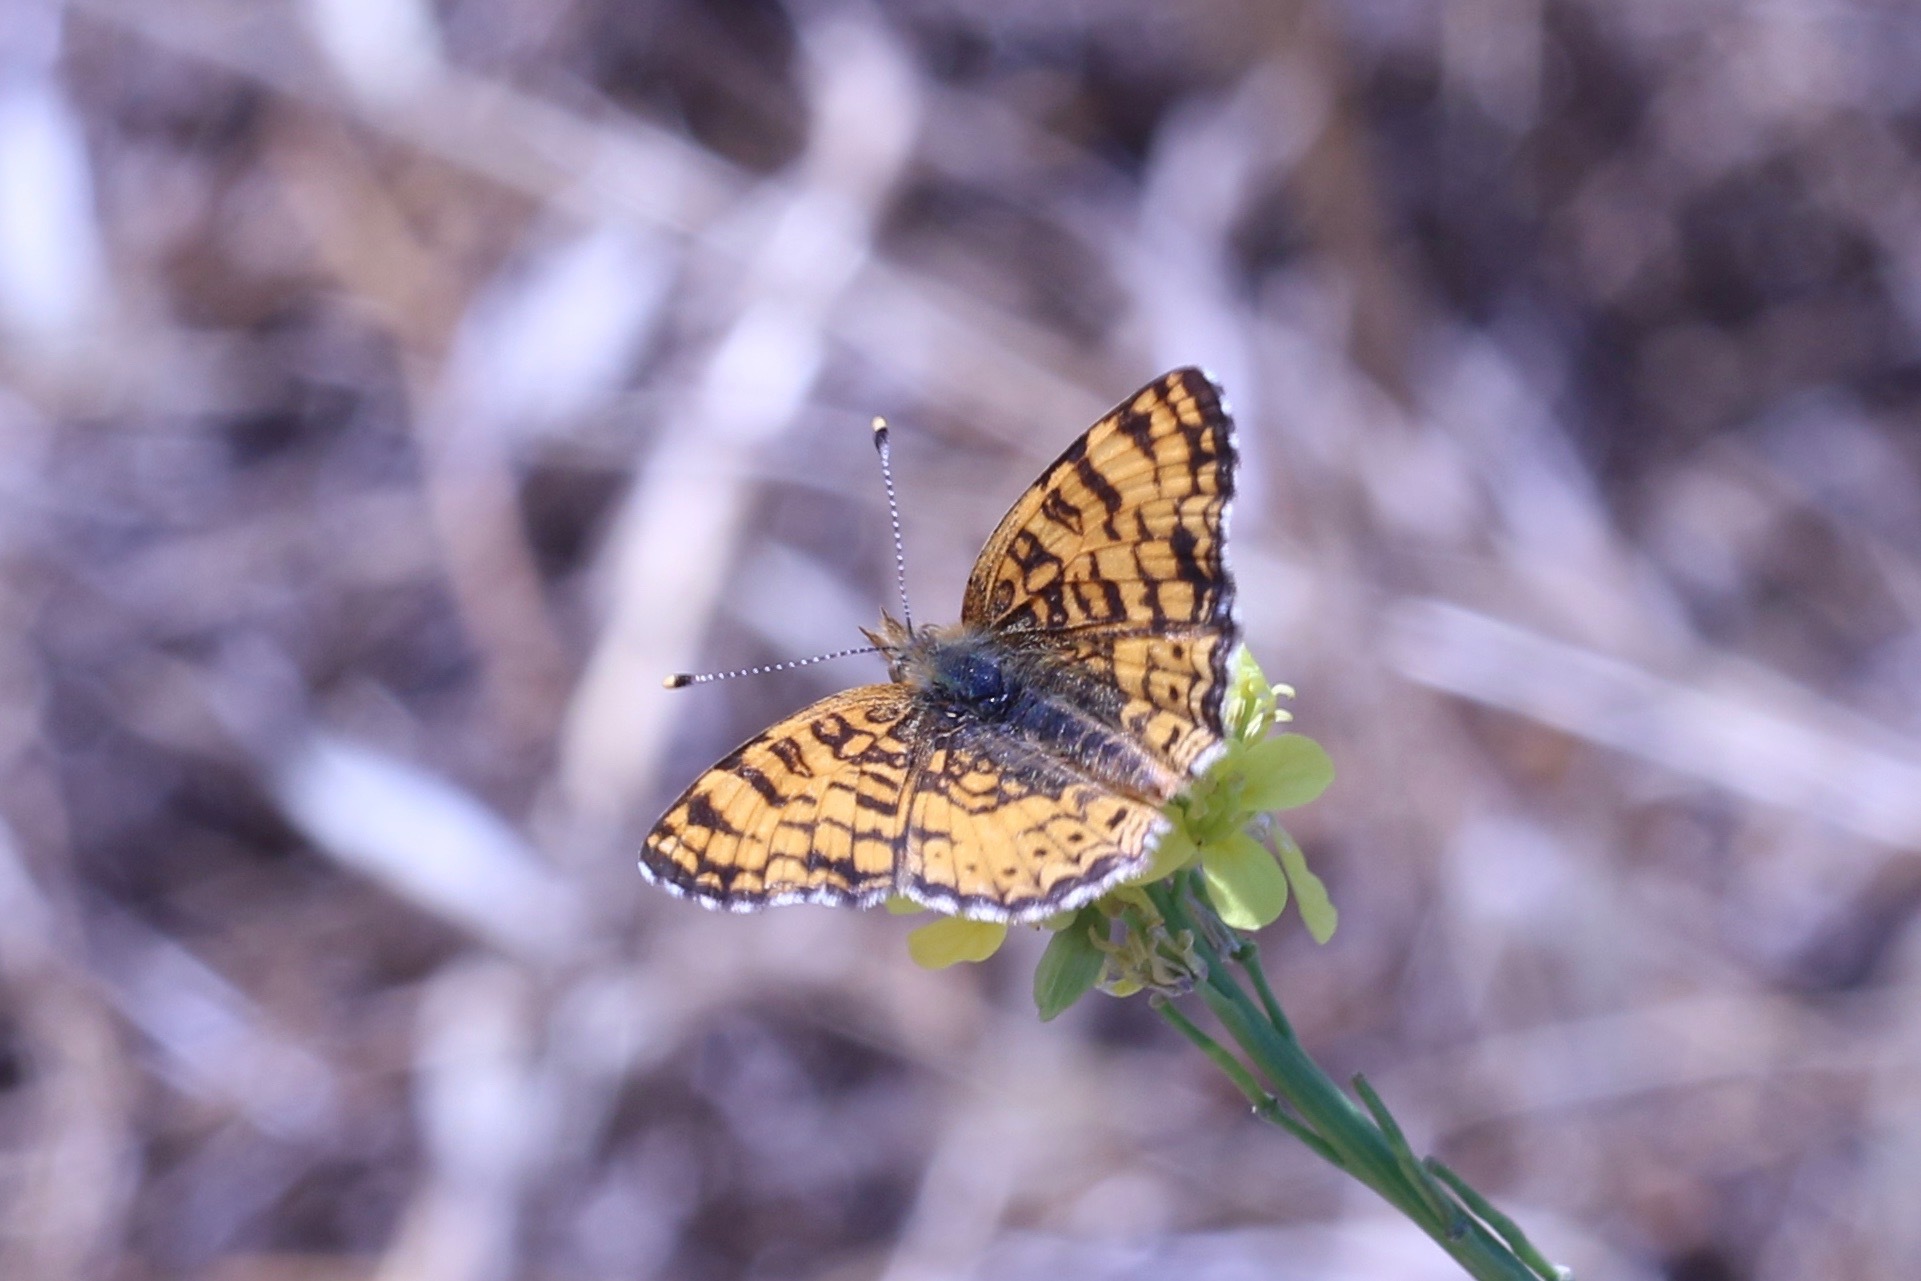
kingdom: Animalia
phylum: Arthropoda
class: Insecta
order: Lepidoptera
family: Nymphalidae
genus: Eresia
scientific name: Eresia aveyrona
